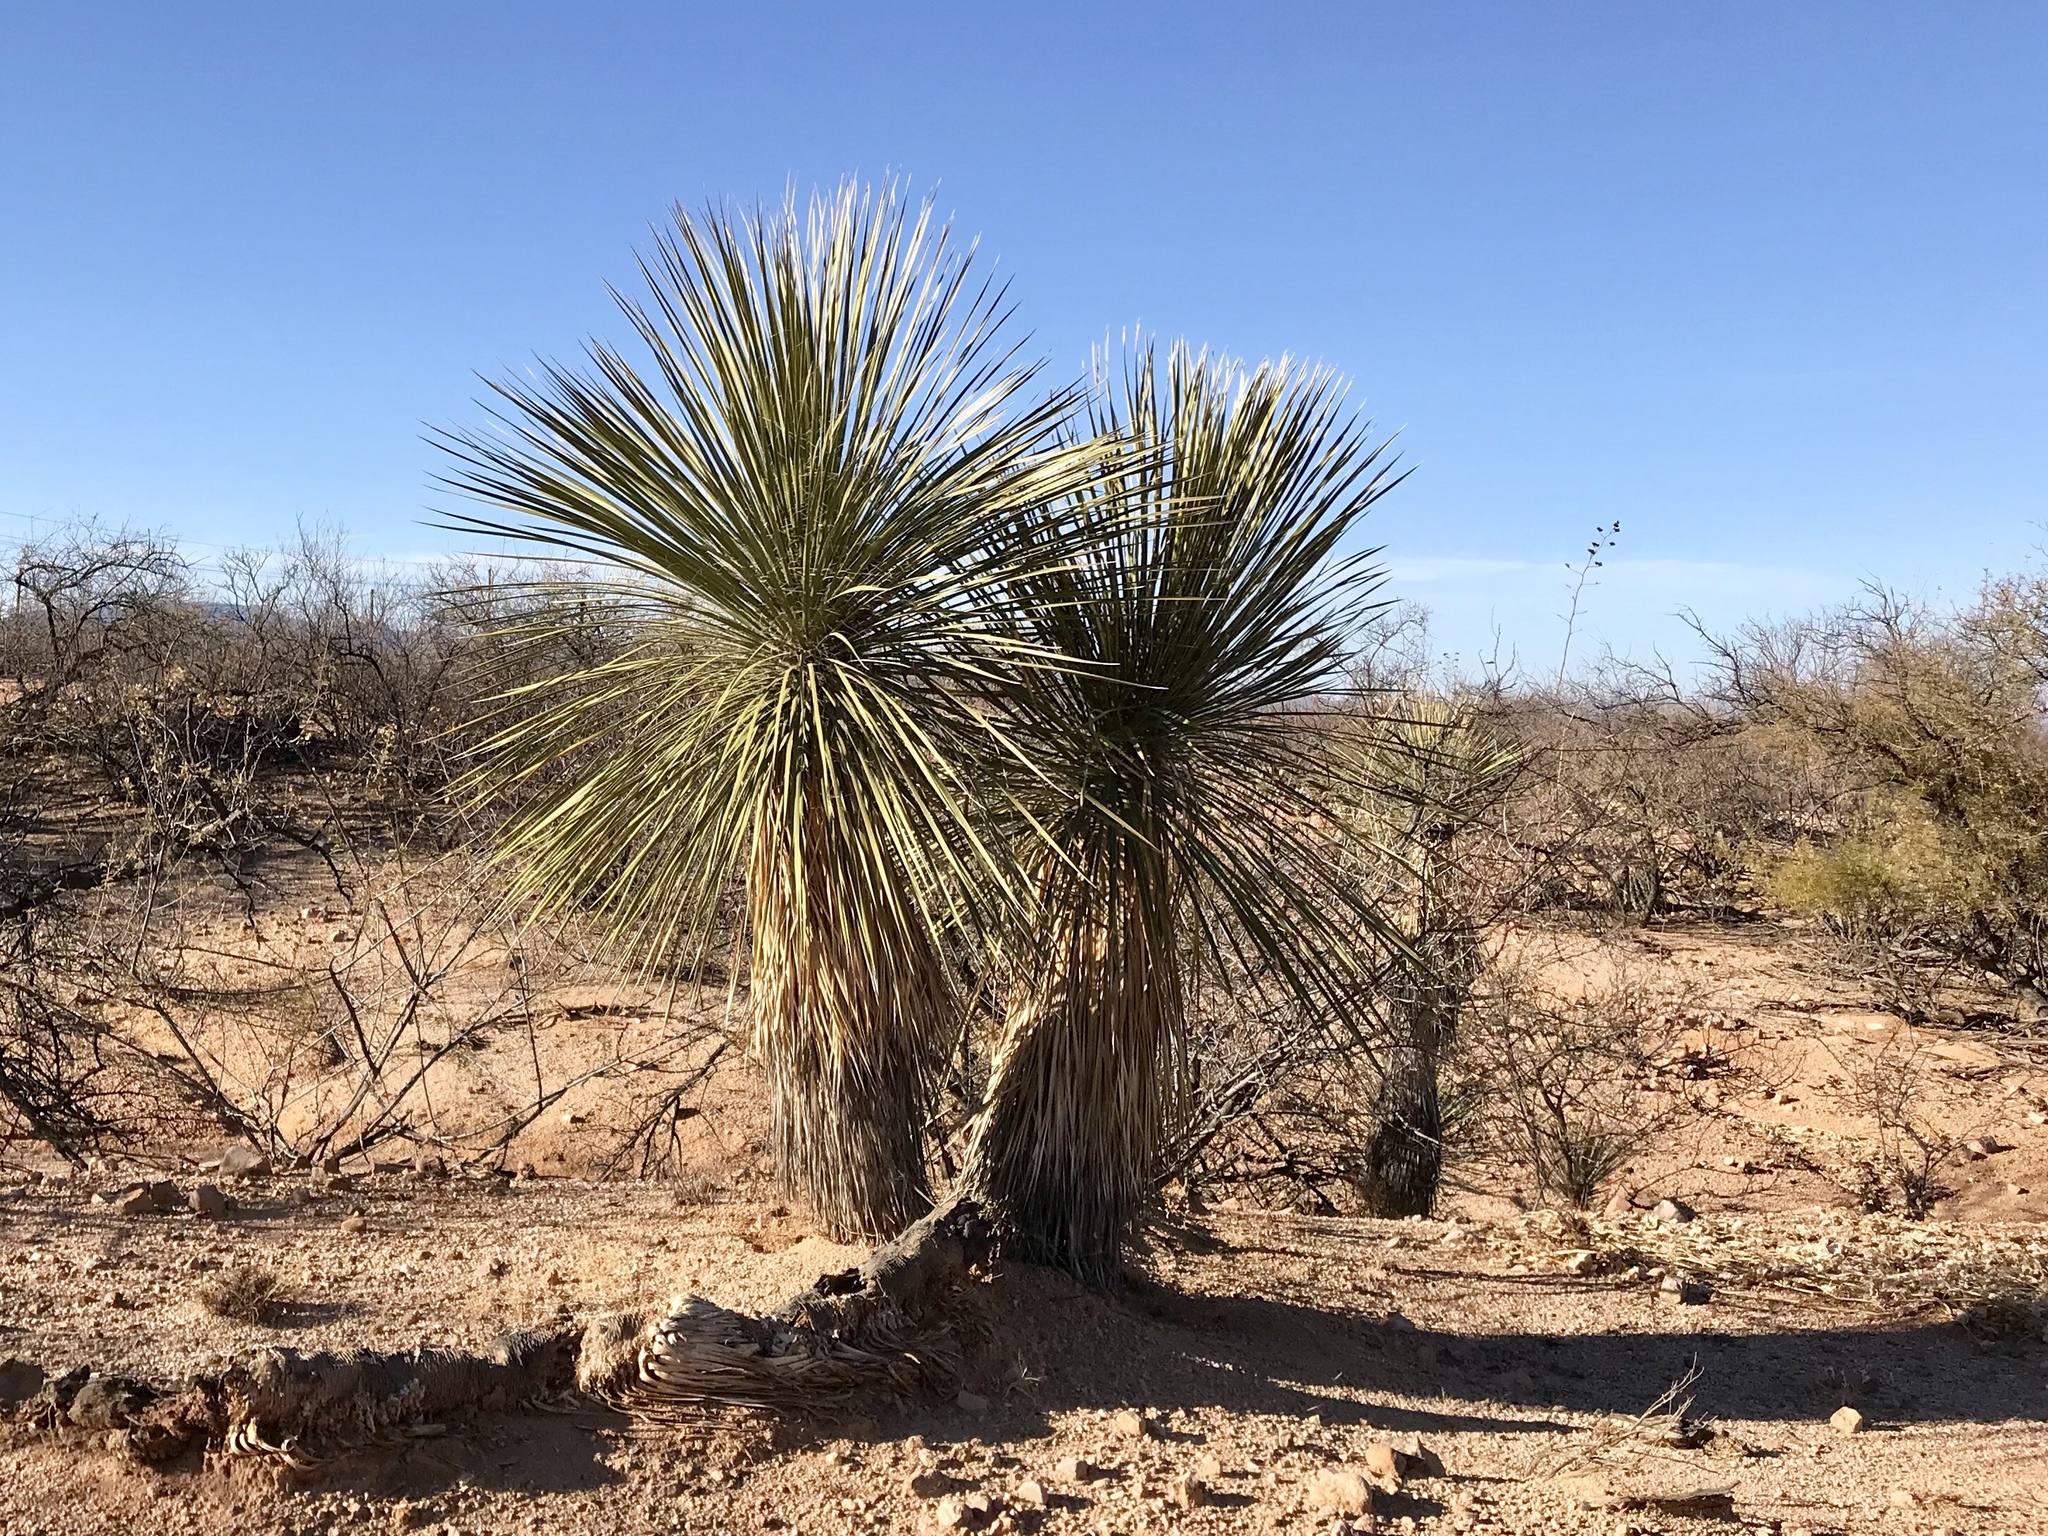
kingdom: Plantae
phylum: Tracheophyta
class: Liliopsida
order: Asparagales
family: Asparagaceae
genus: Yucca
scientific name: Yucca elata
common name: Palmella
